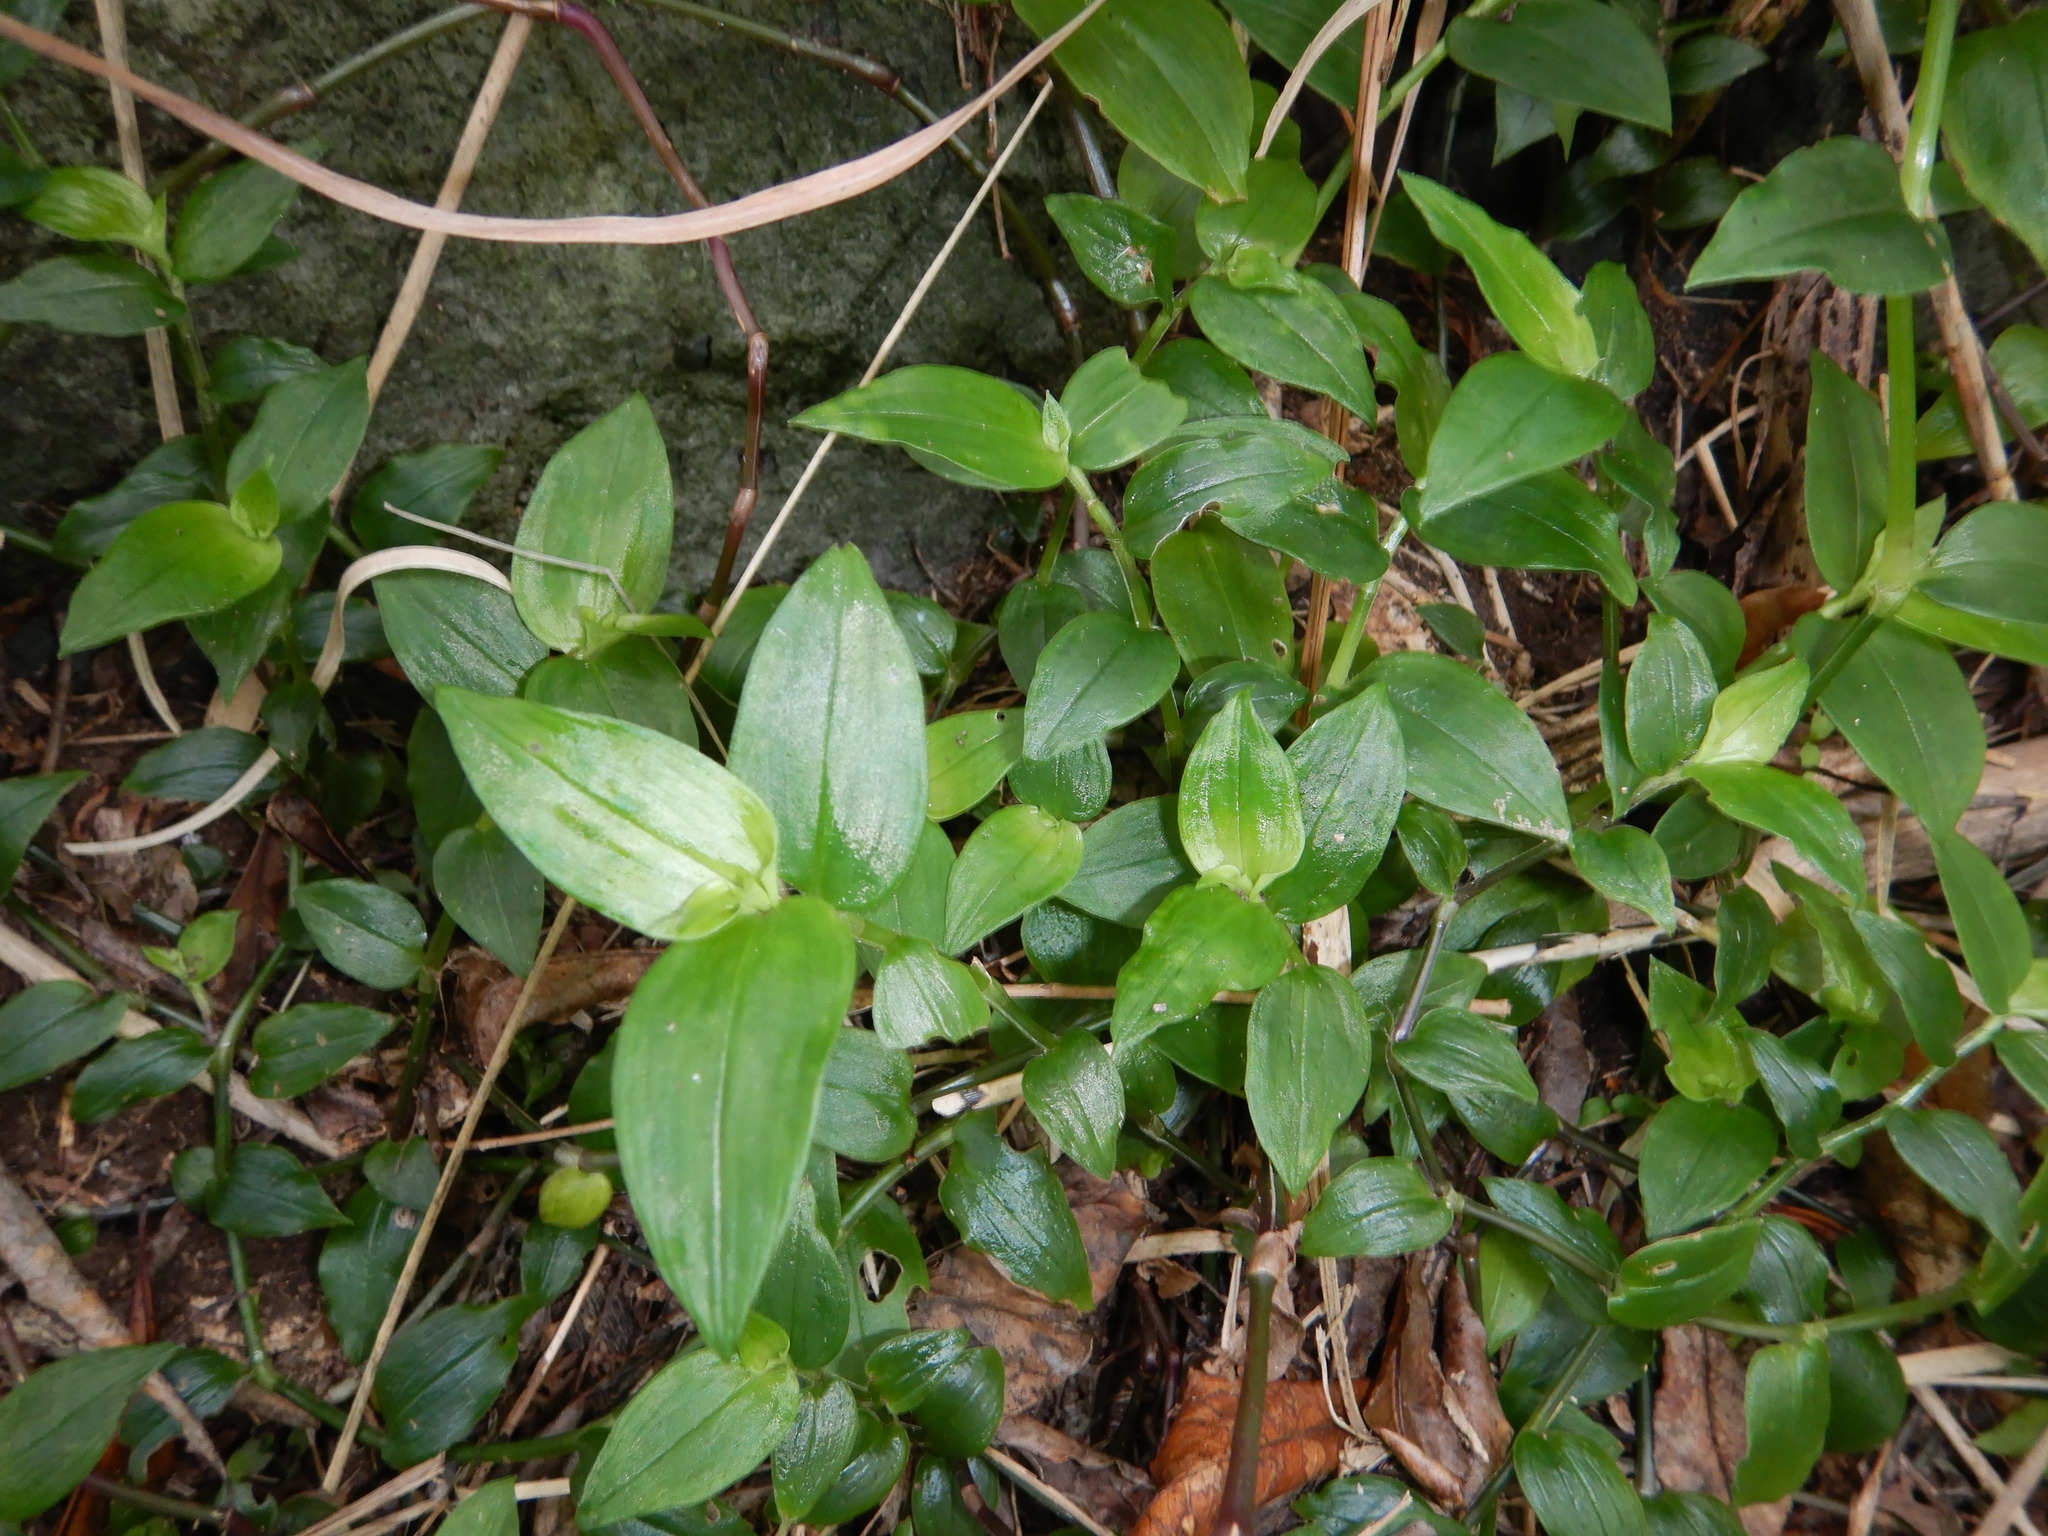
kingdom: Plantae
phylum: Tracheophyta
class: Liliopsida
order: Commelinales
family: Commelinaceae
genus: Tradescantia
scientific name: Tradescantia fluminensis
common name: Wandering-jew
